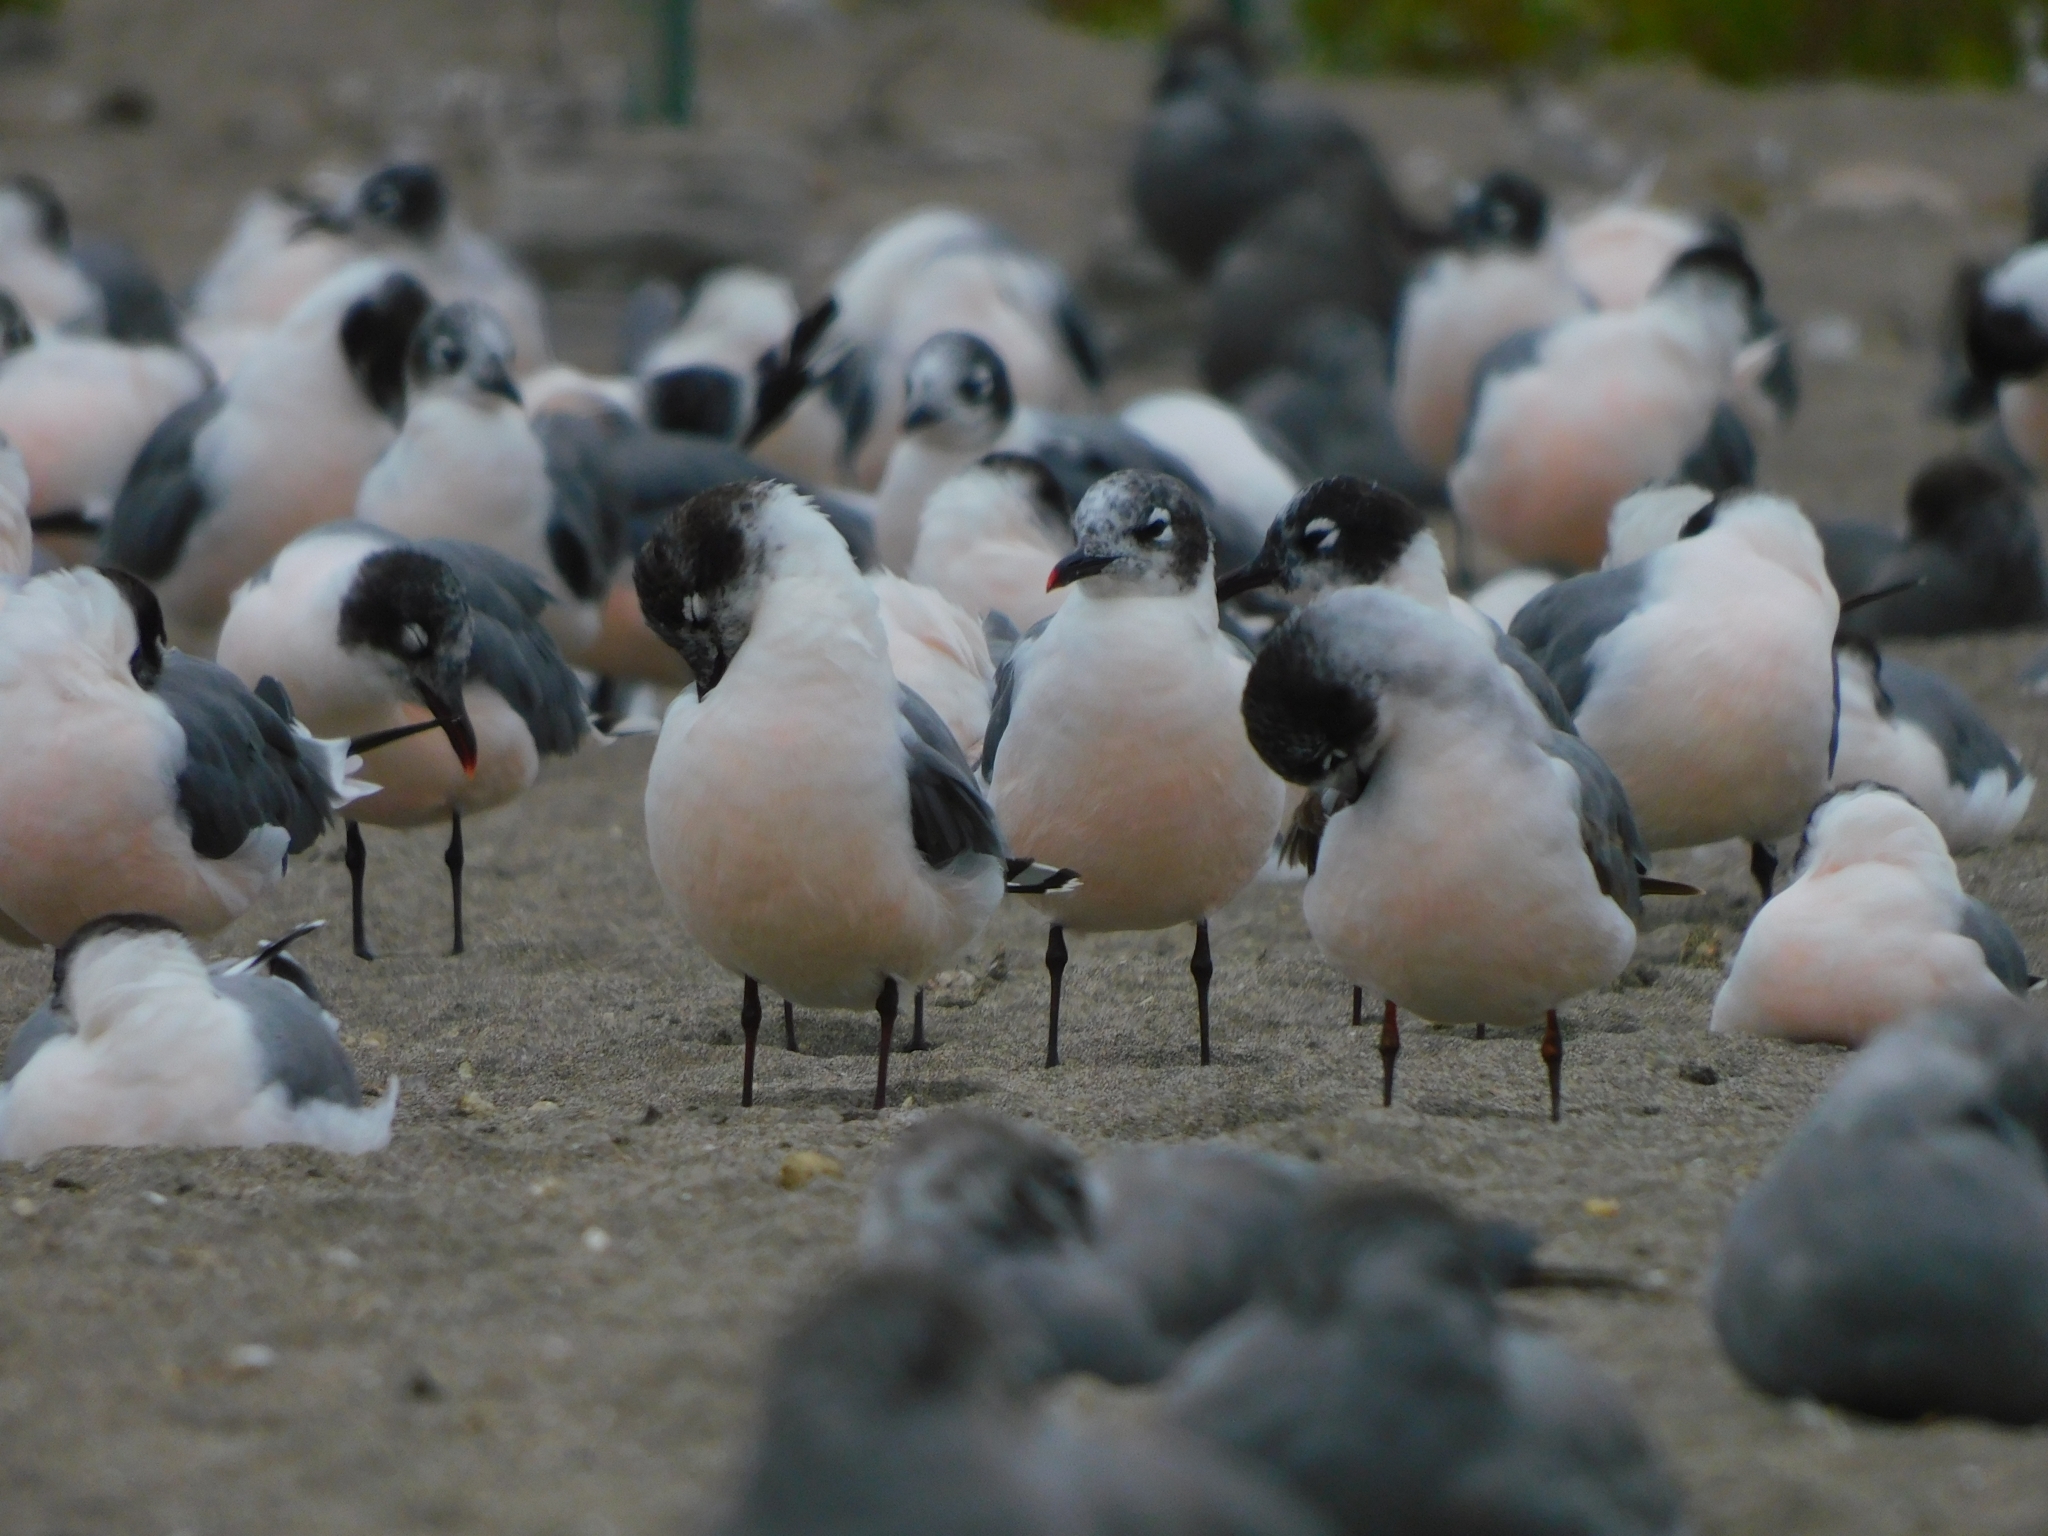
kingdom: Animalia
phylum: Chordata
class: Aves
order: Charadriiformes
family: Laridae
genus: Leucophaeus
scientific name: Leucophaeus pipixcan
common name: Franklin's gull
